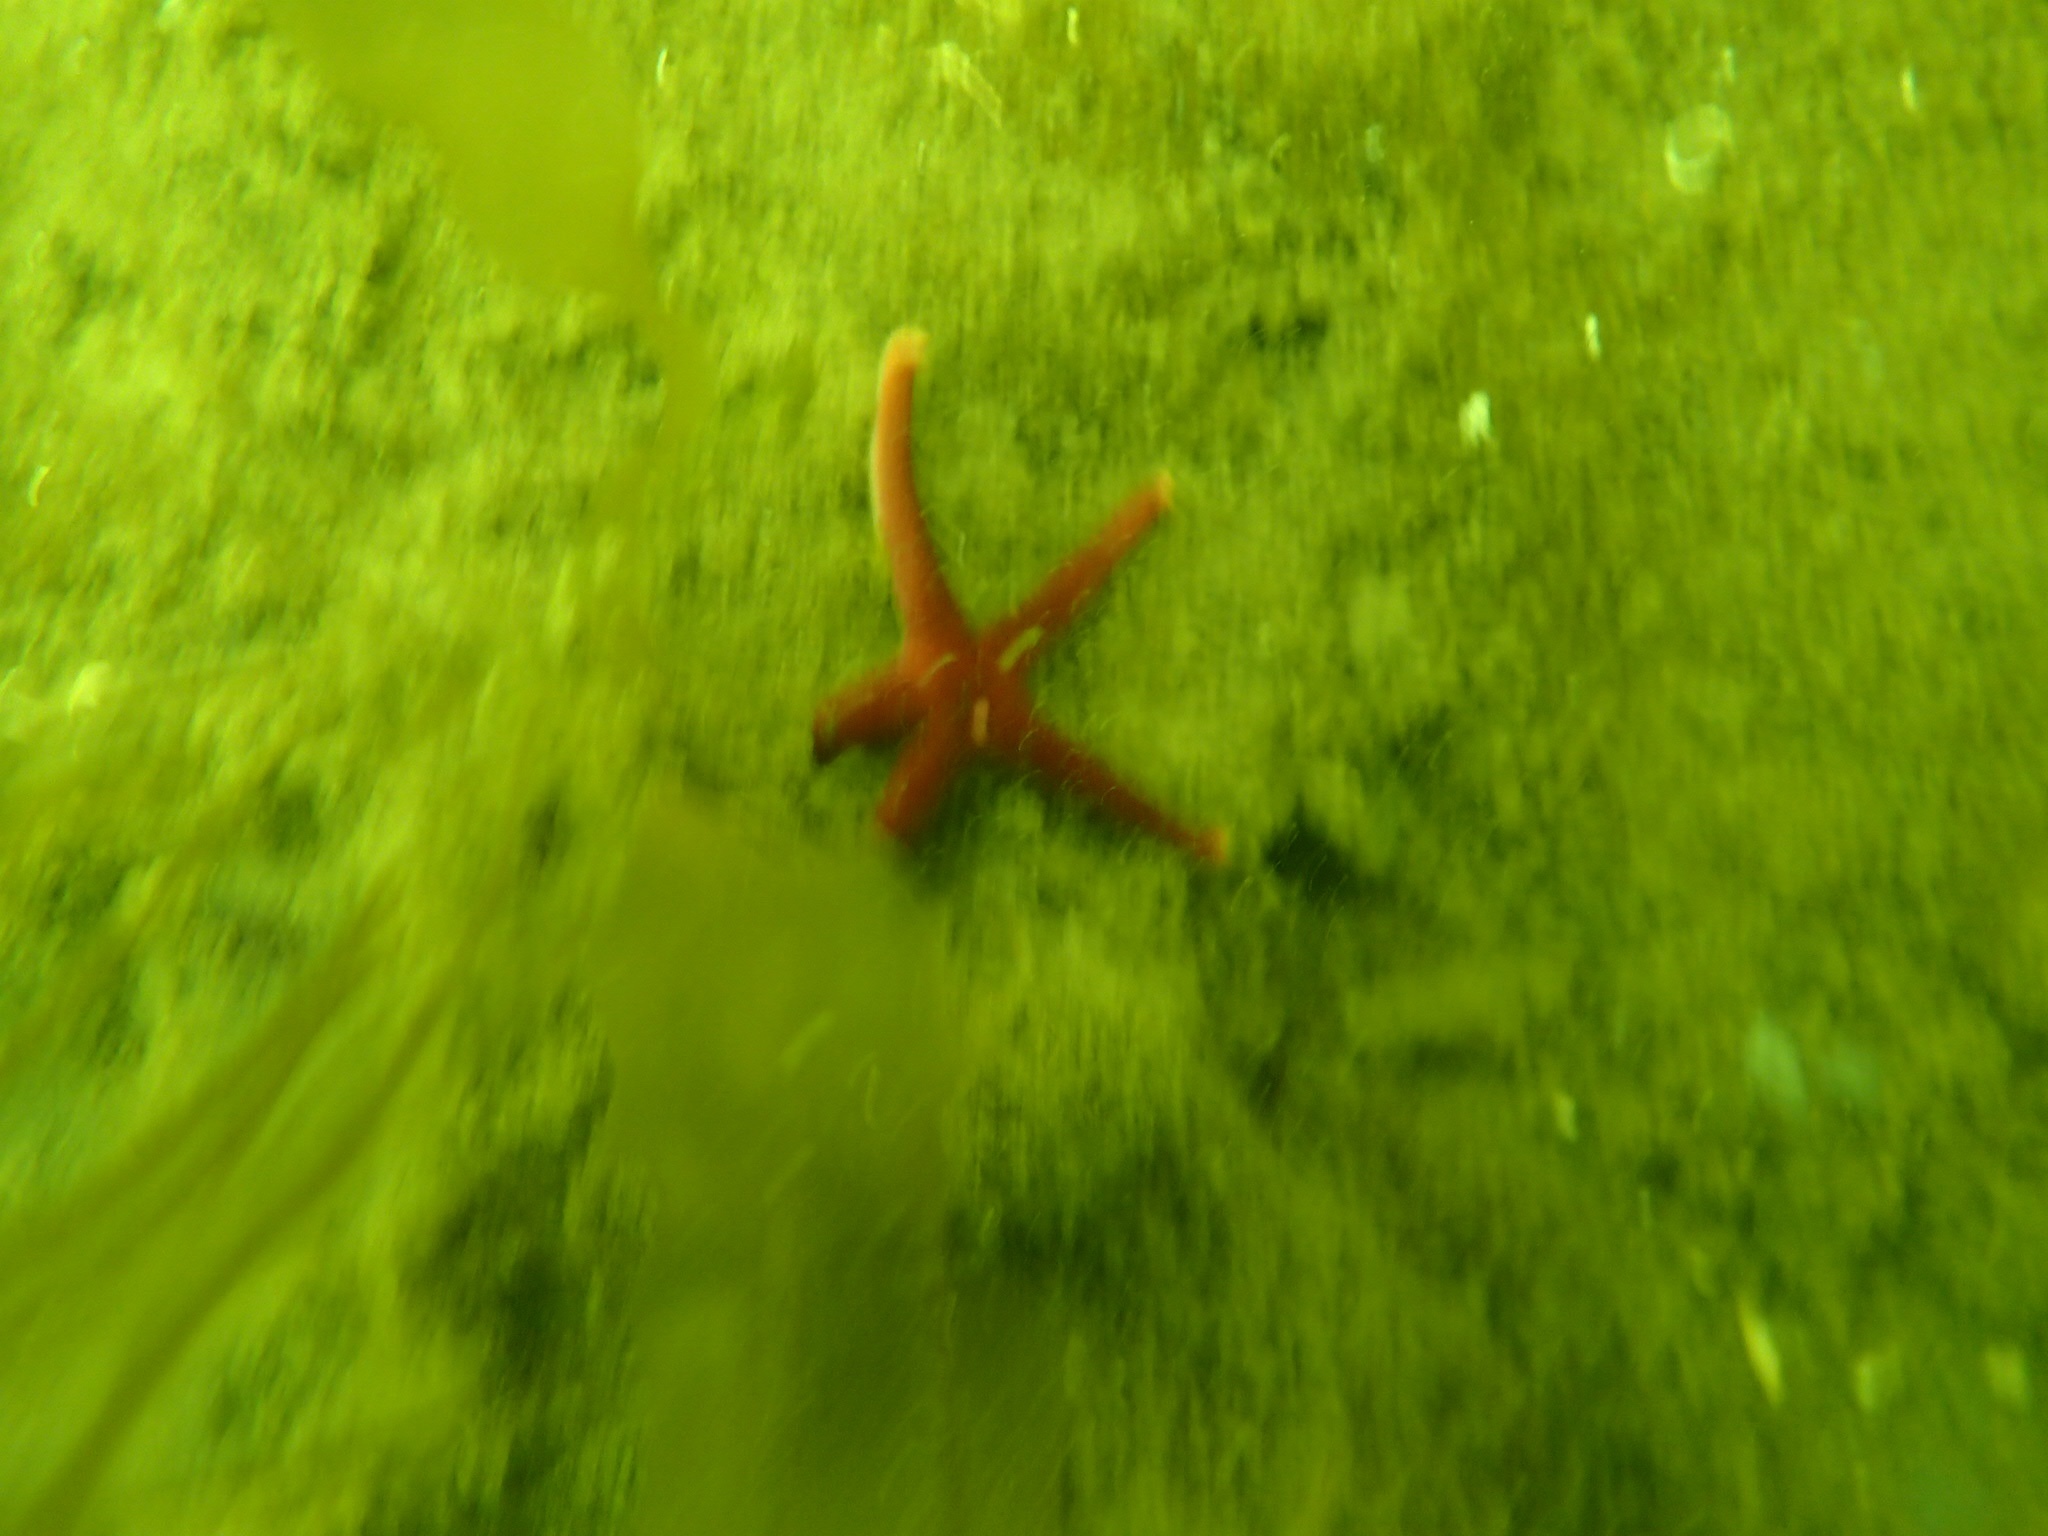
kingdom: Animalia
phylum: Echinodermata
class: Asteroidea
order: Spinulosida
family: Echinasteridae
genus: Henricia
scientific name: Henricia sanguinolenta
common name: Blood star
